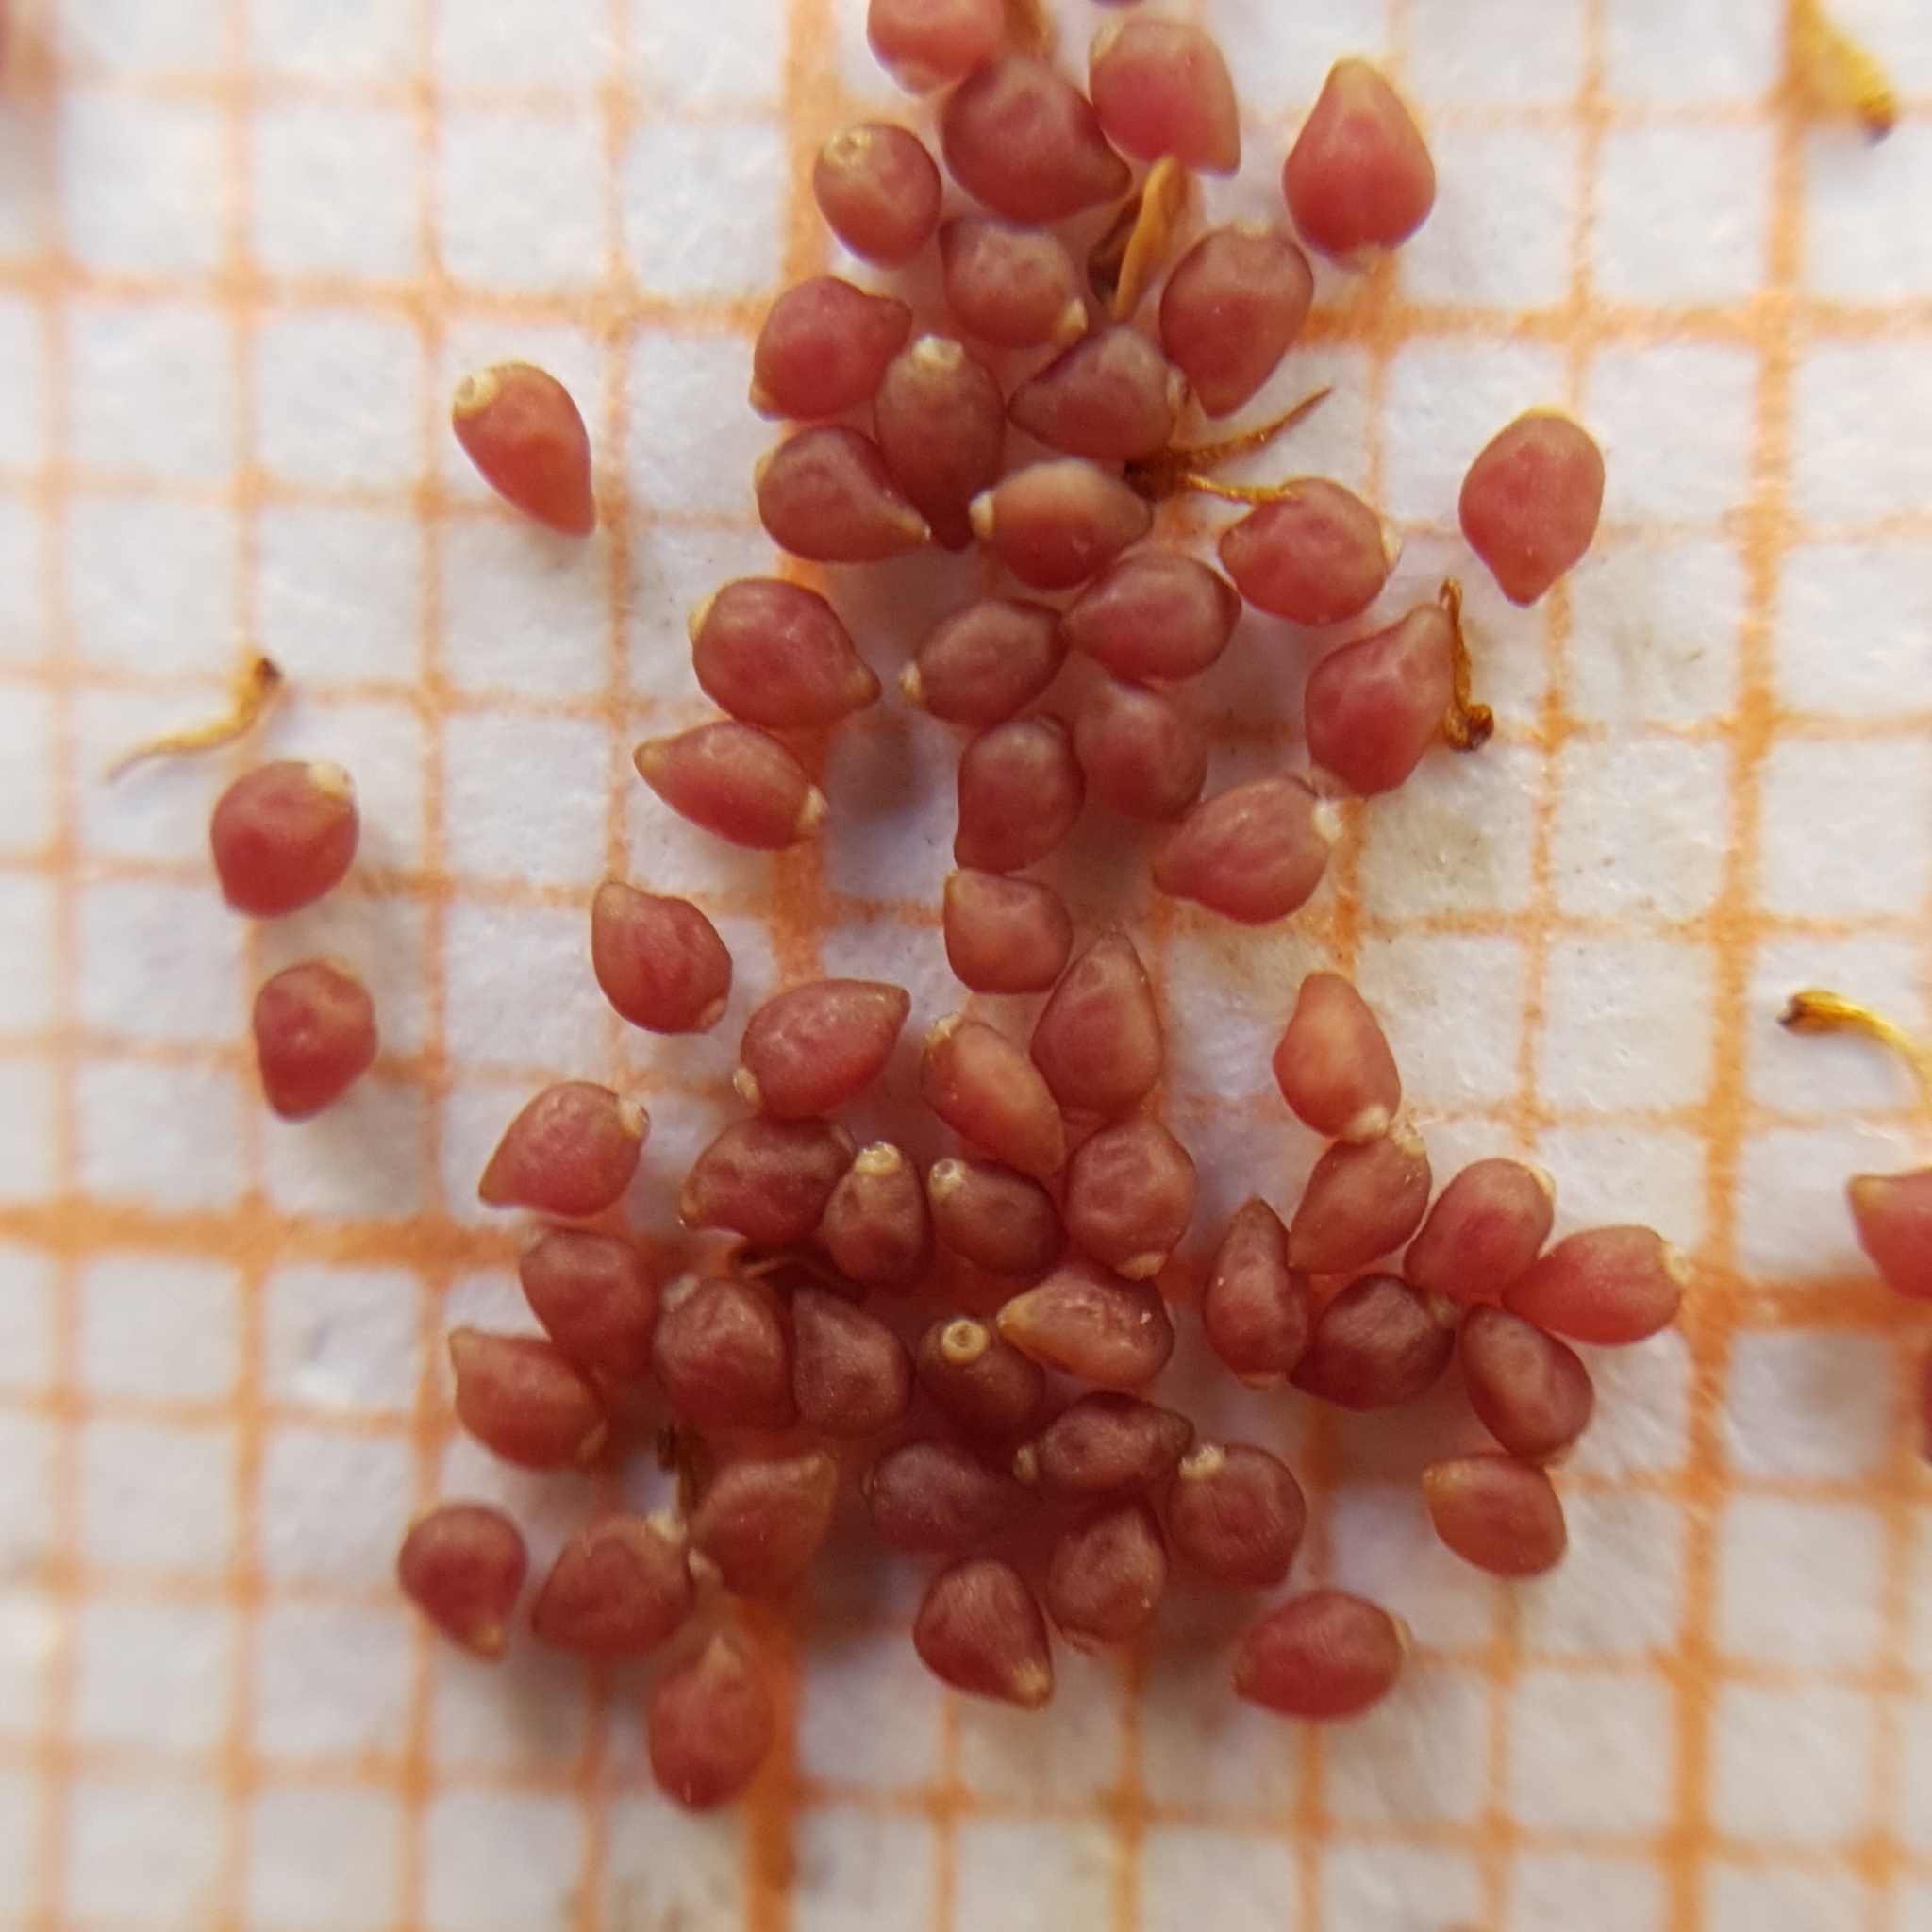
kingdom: Plantae
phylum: Tracheophyta
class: Magnoliopsida
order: Malvales
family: Cistaceae
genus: Helianthemum
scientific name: Helianthemum ledifolium
